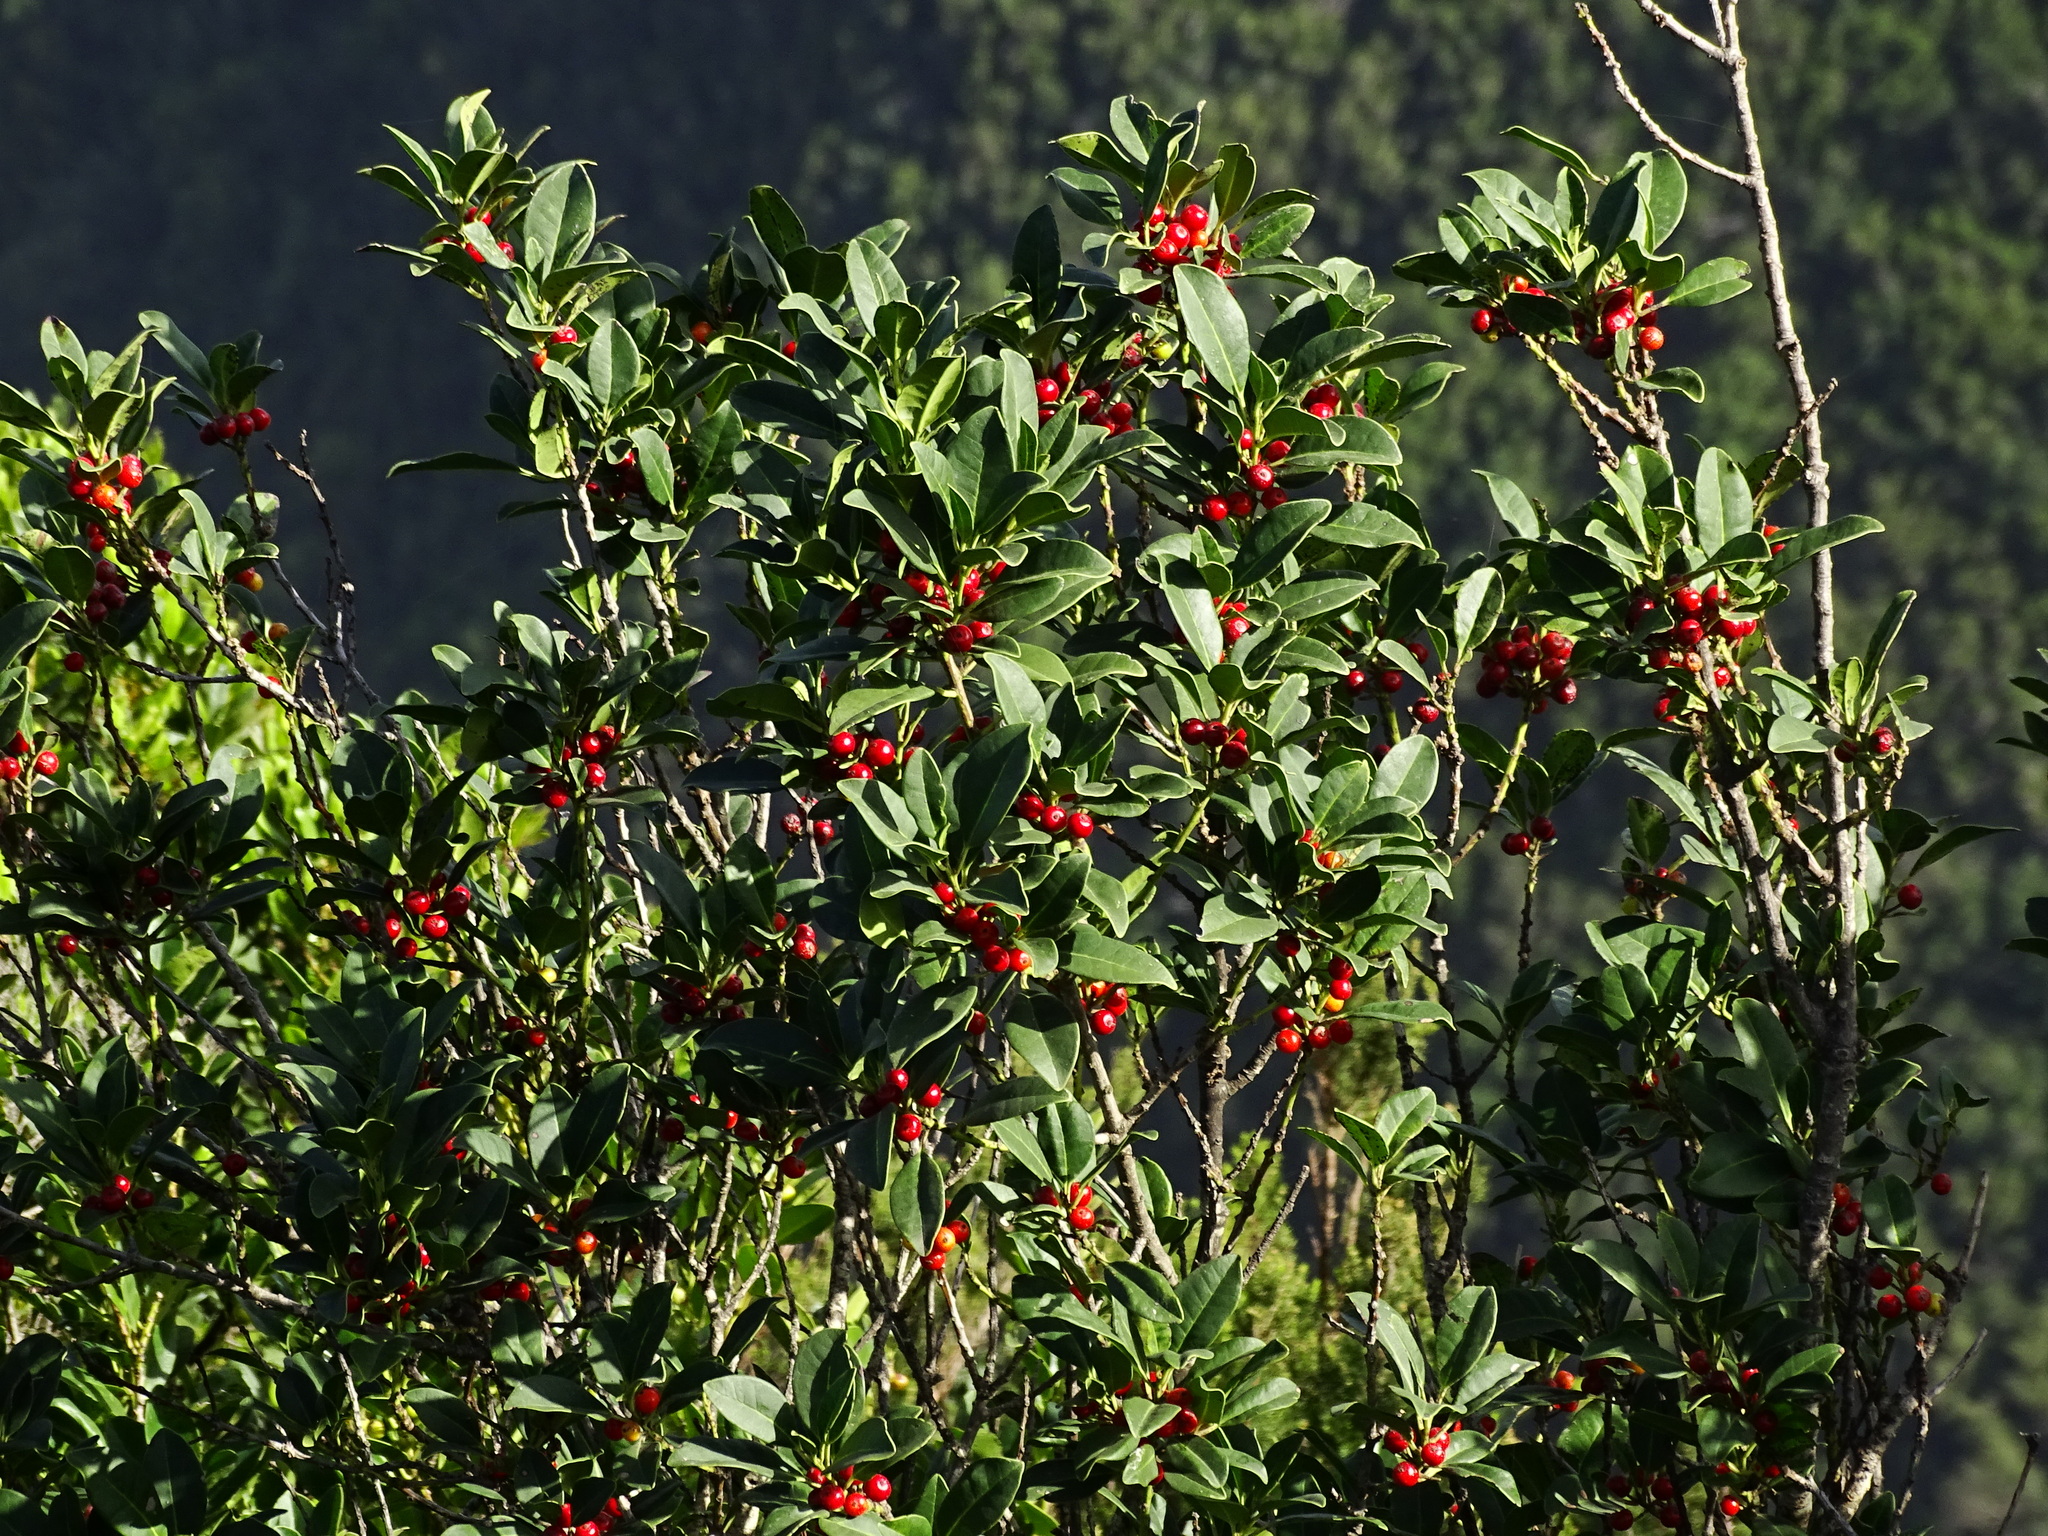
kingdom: Plantae
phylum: Tracheophyta
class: Magnoliopsida
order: Aquifoliales
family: Aquifoliaceae
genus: Ilex
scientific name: Ilex canariensis
